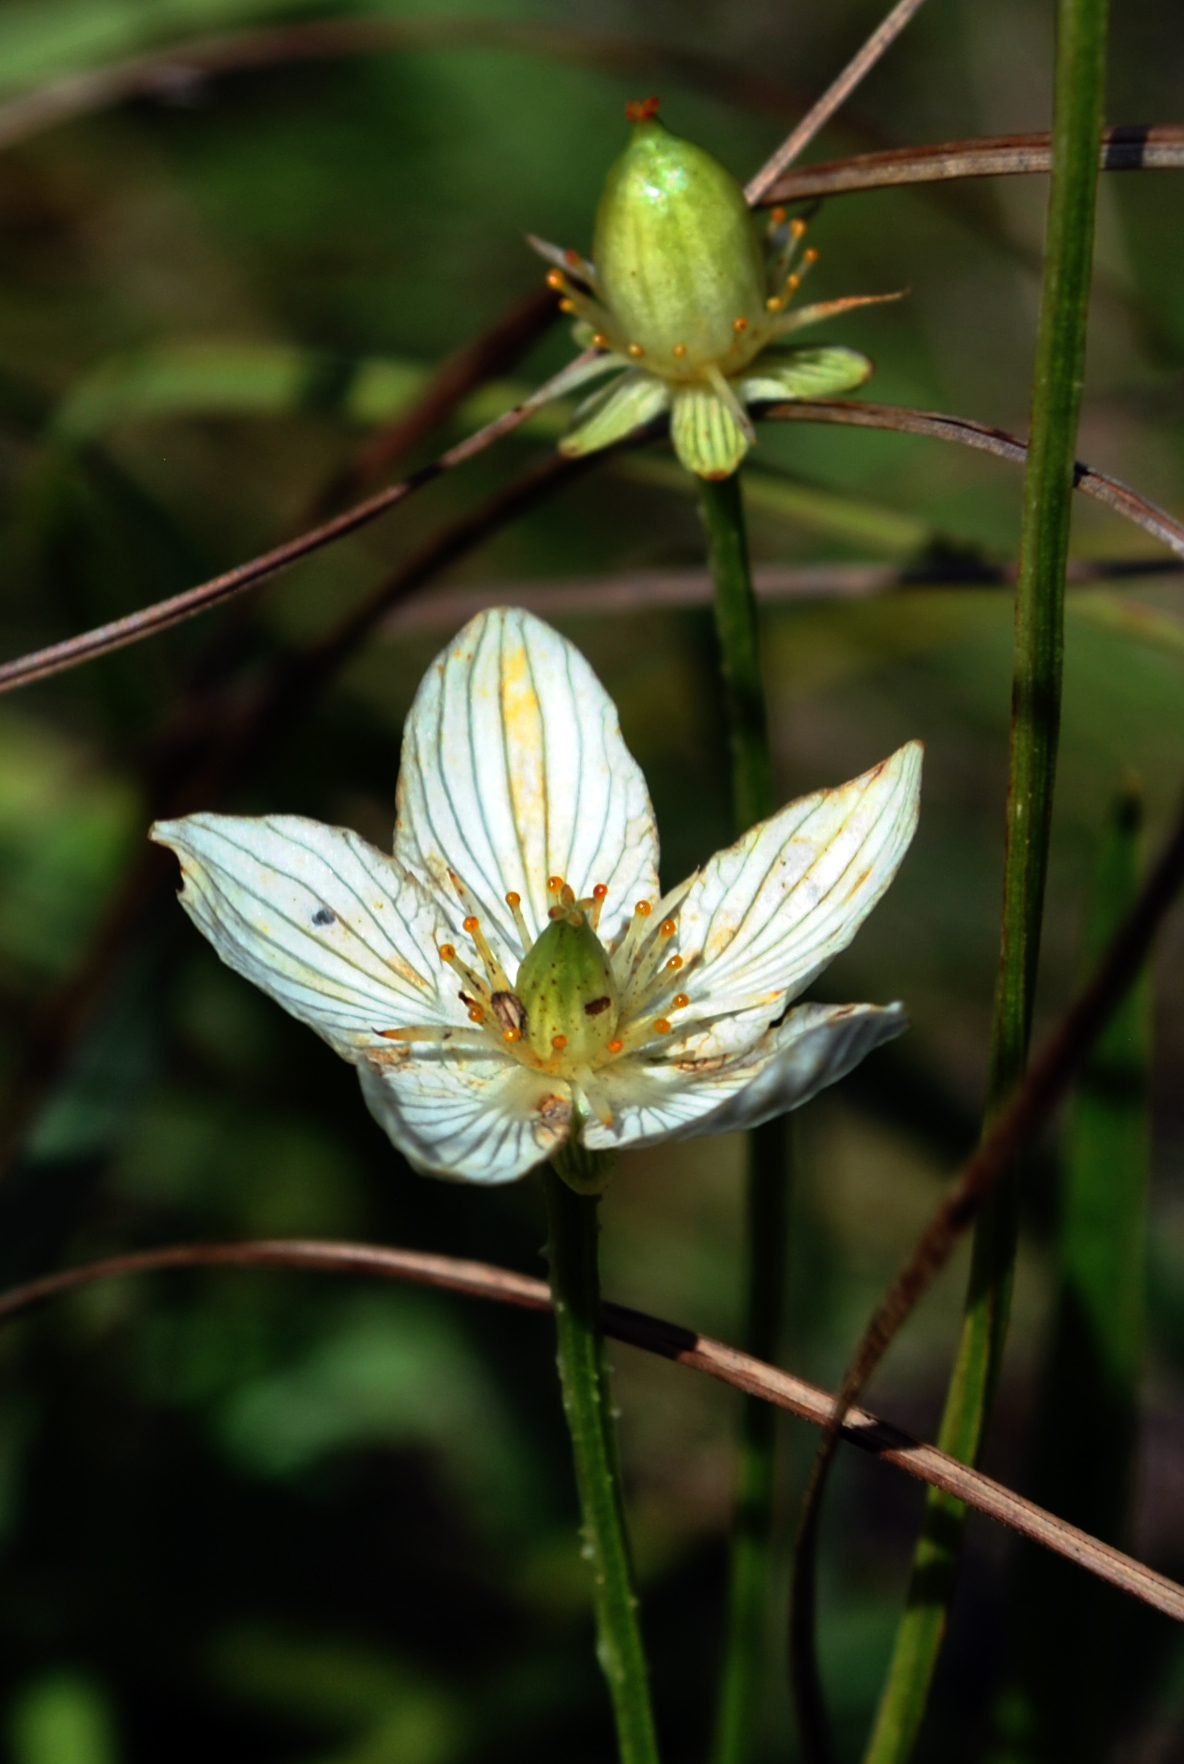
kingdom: Plantae
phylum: Tracheophyta
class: Magnoliopsida
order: Celastrales
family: Parnassiaceae
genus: Parnassia
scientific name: Parnassia glauca
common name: American grass-of-parnassus
